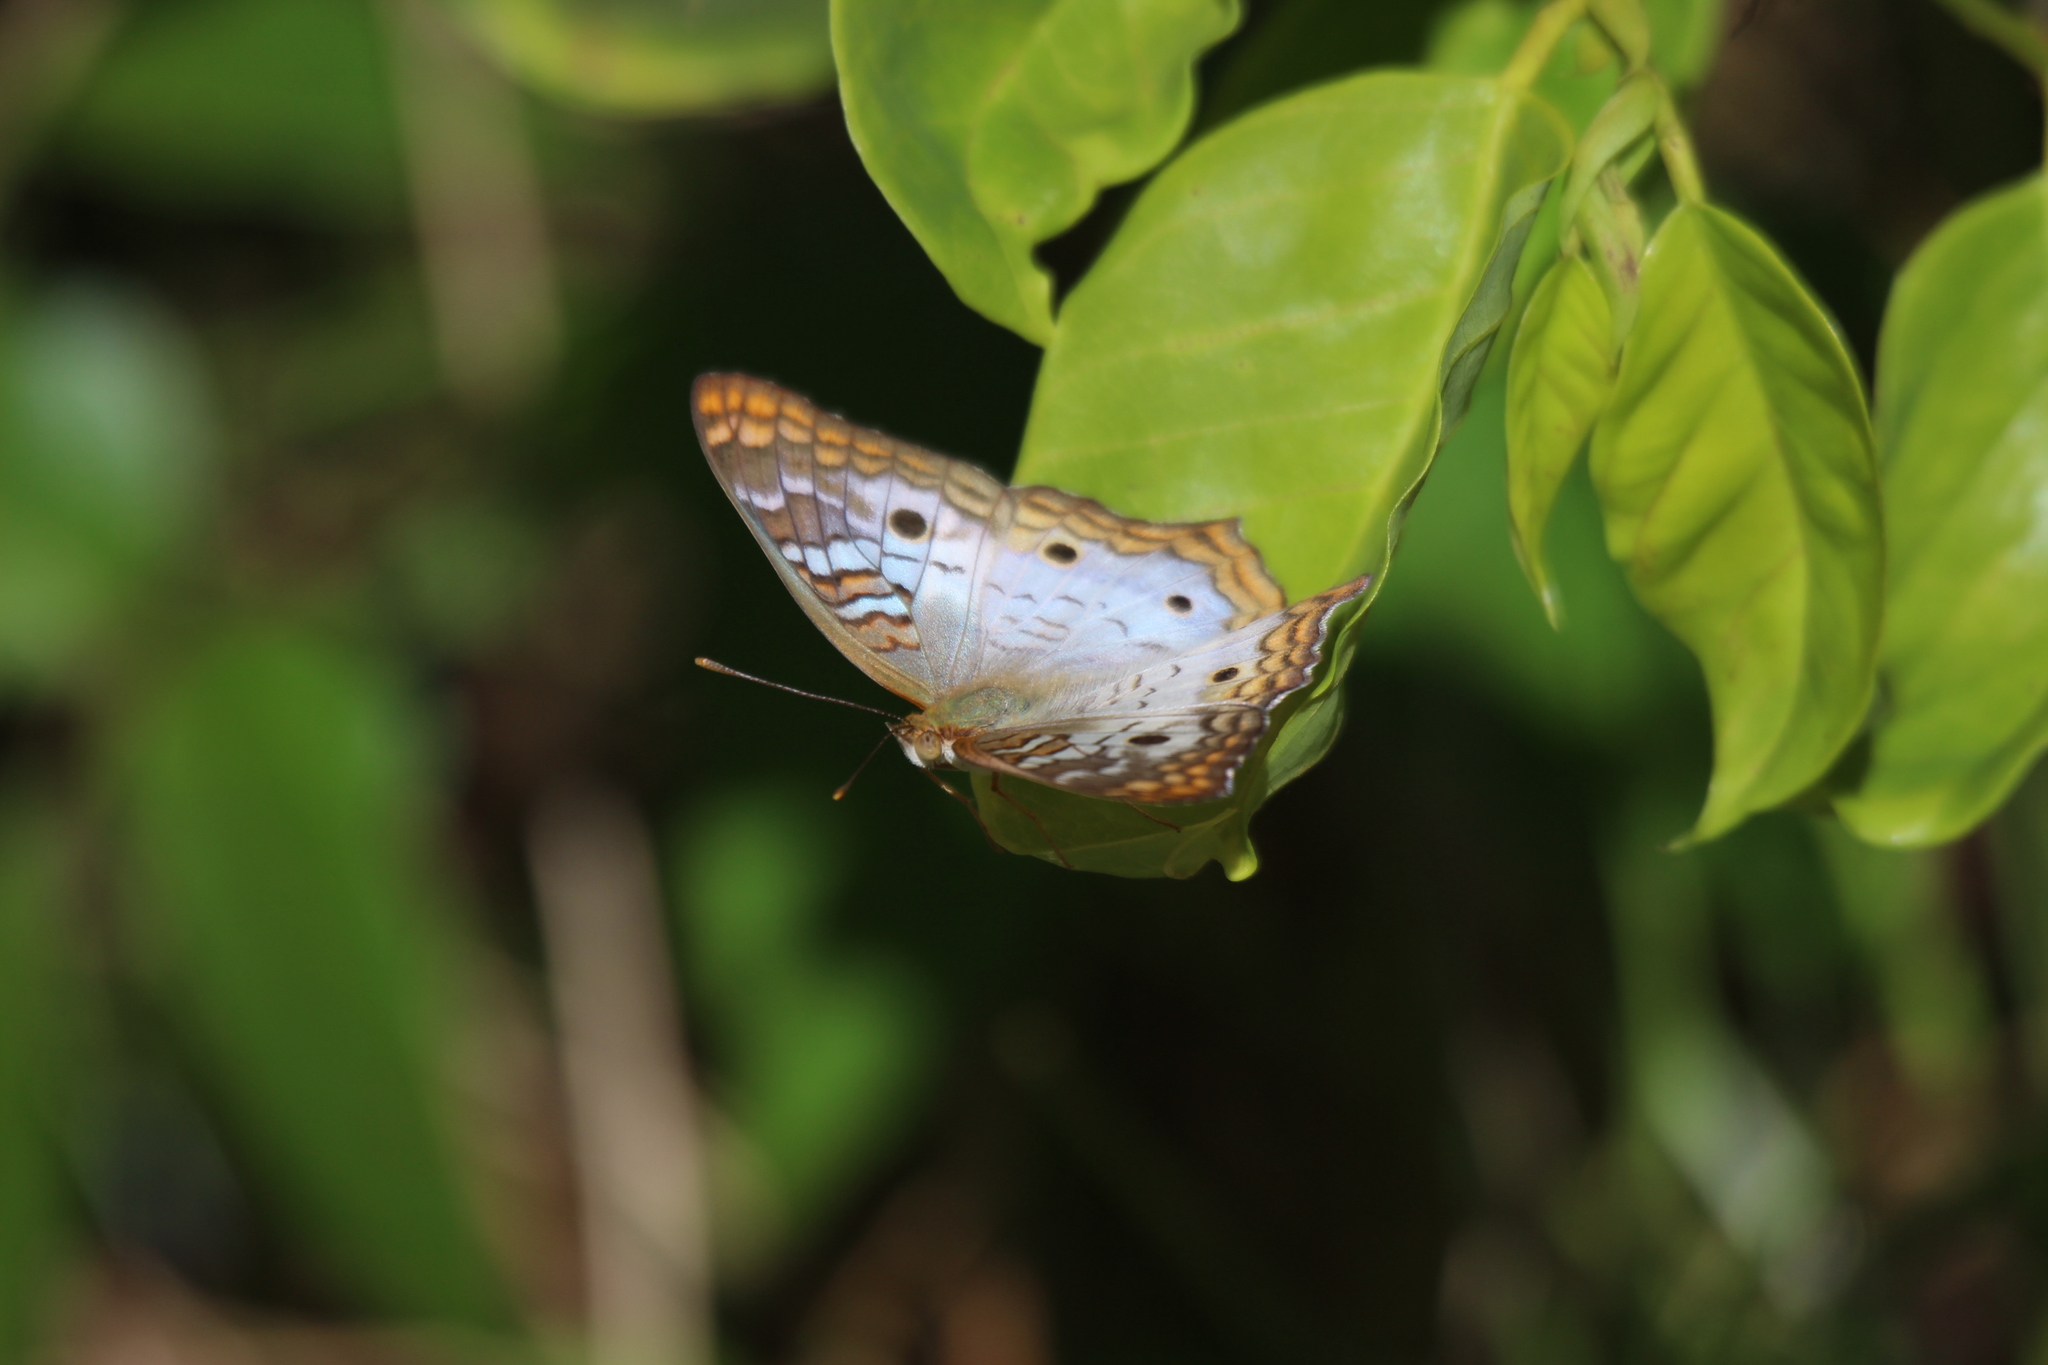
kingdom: Animalia
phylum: Arthropoda
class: Insecta
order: Lepidoptera
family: Nymphalidae
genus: Anartia
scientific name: Anartia jatrophae
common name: White peacock
